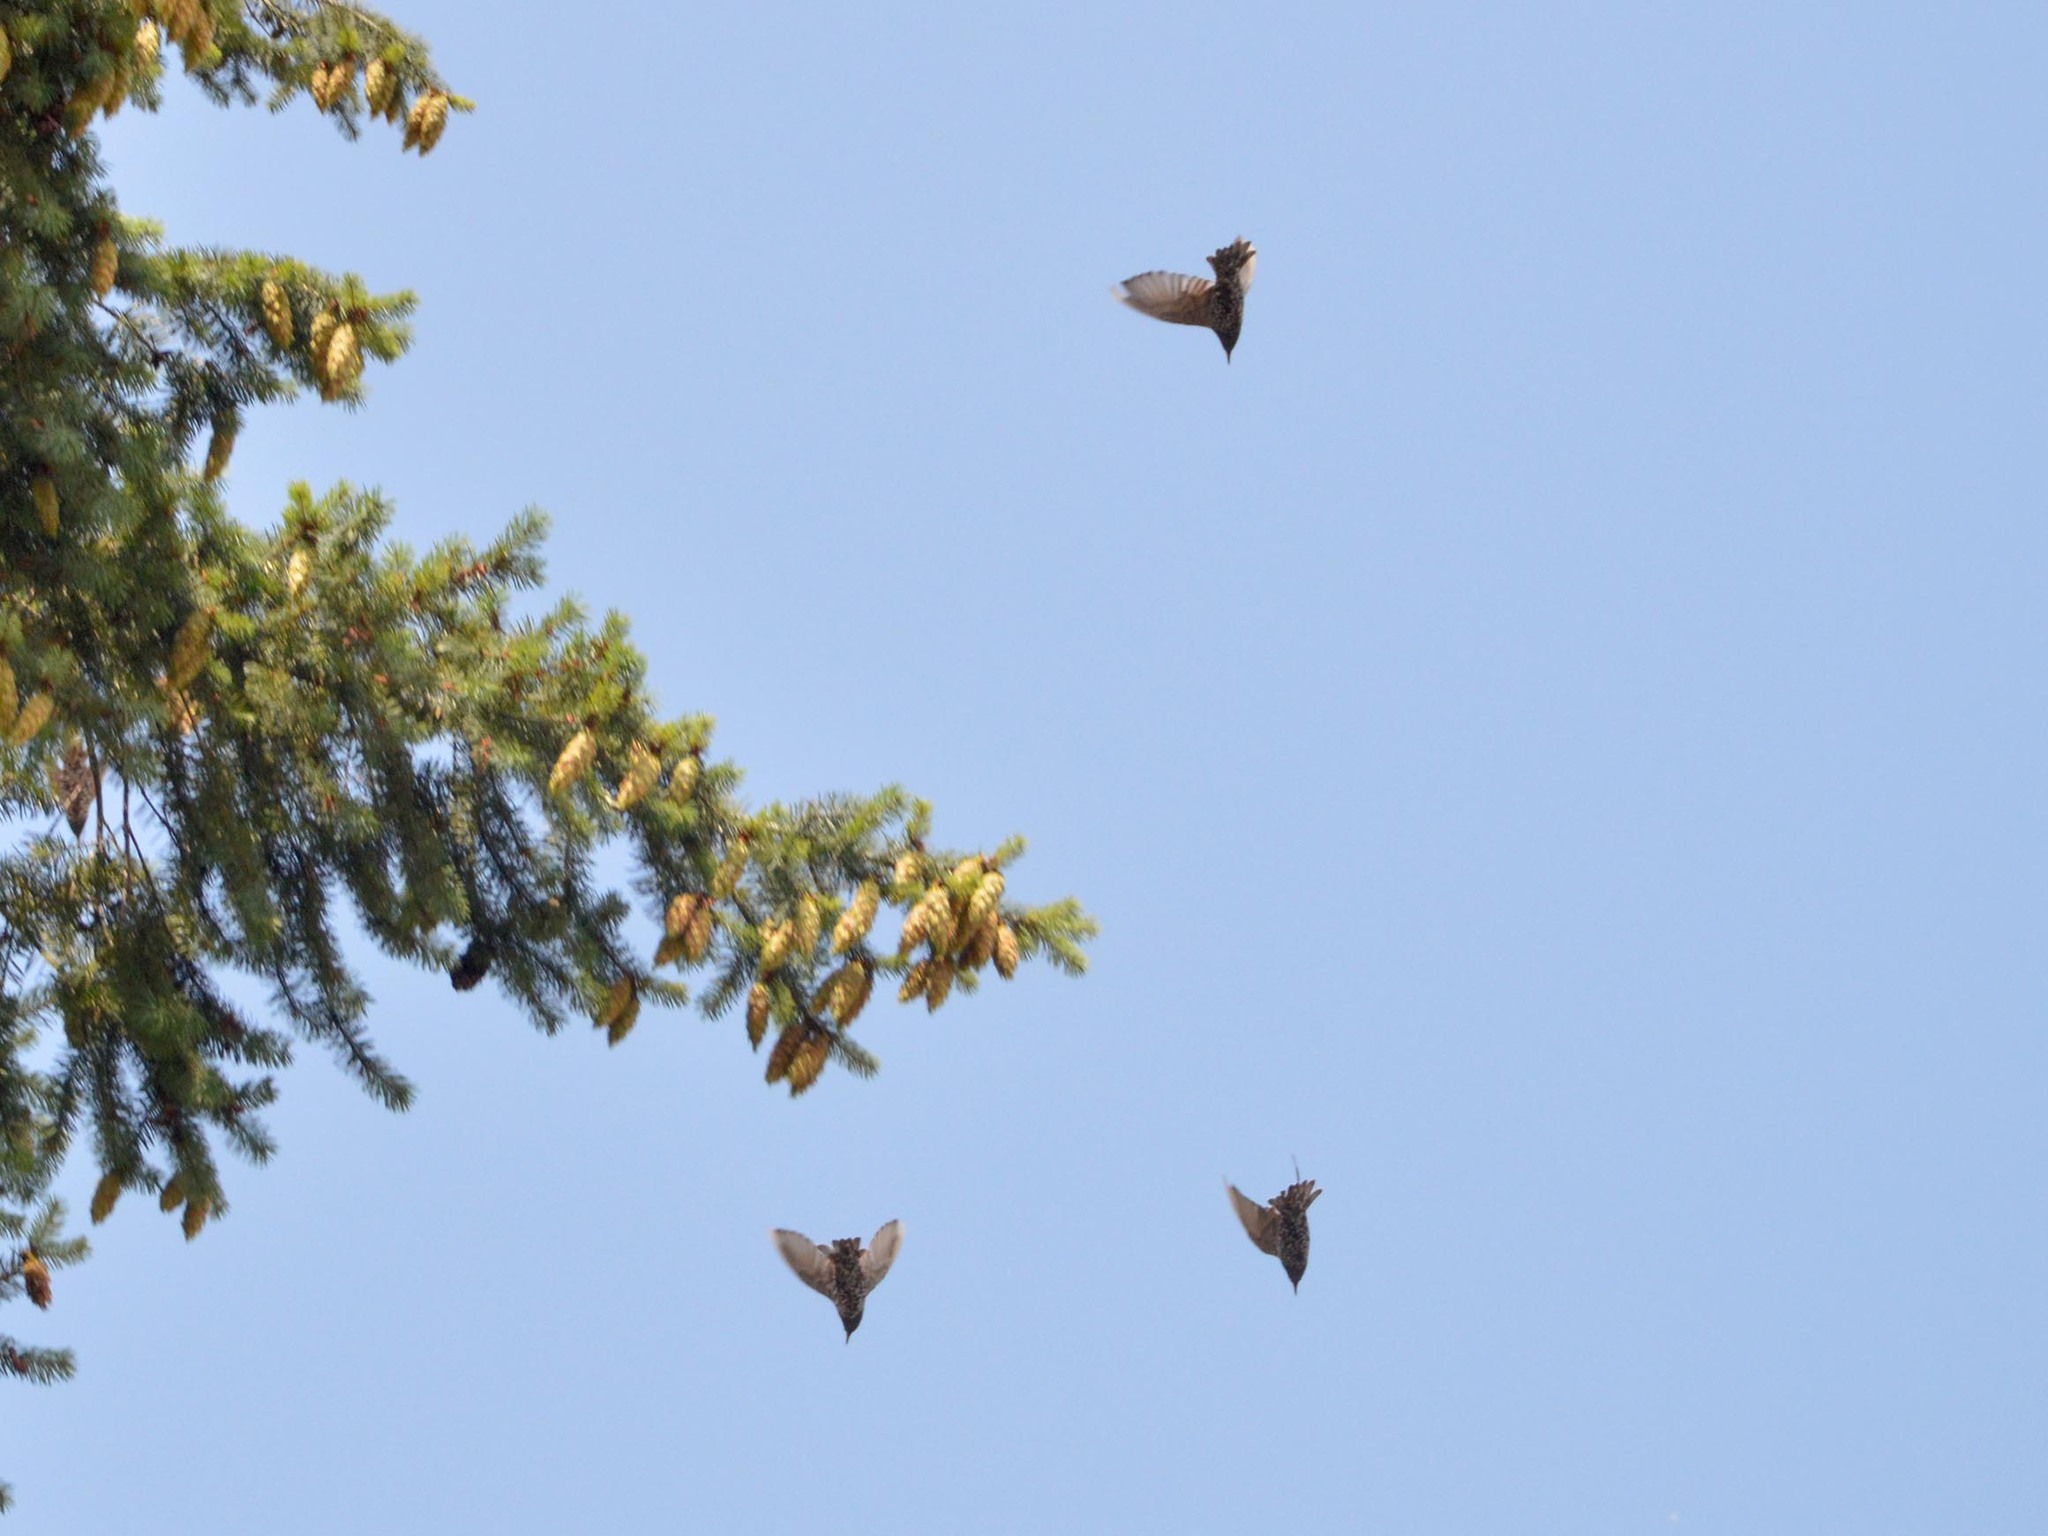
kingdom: Animalia
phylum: Chordata
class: Aves
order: Passeriformes
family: Sturnidae
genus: Sturnus
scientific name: Sturnus vulgaris
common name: Common starling
